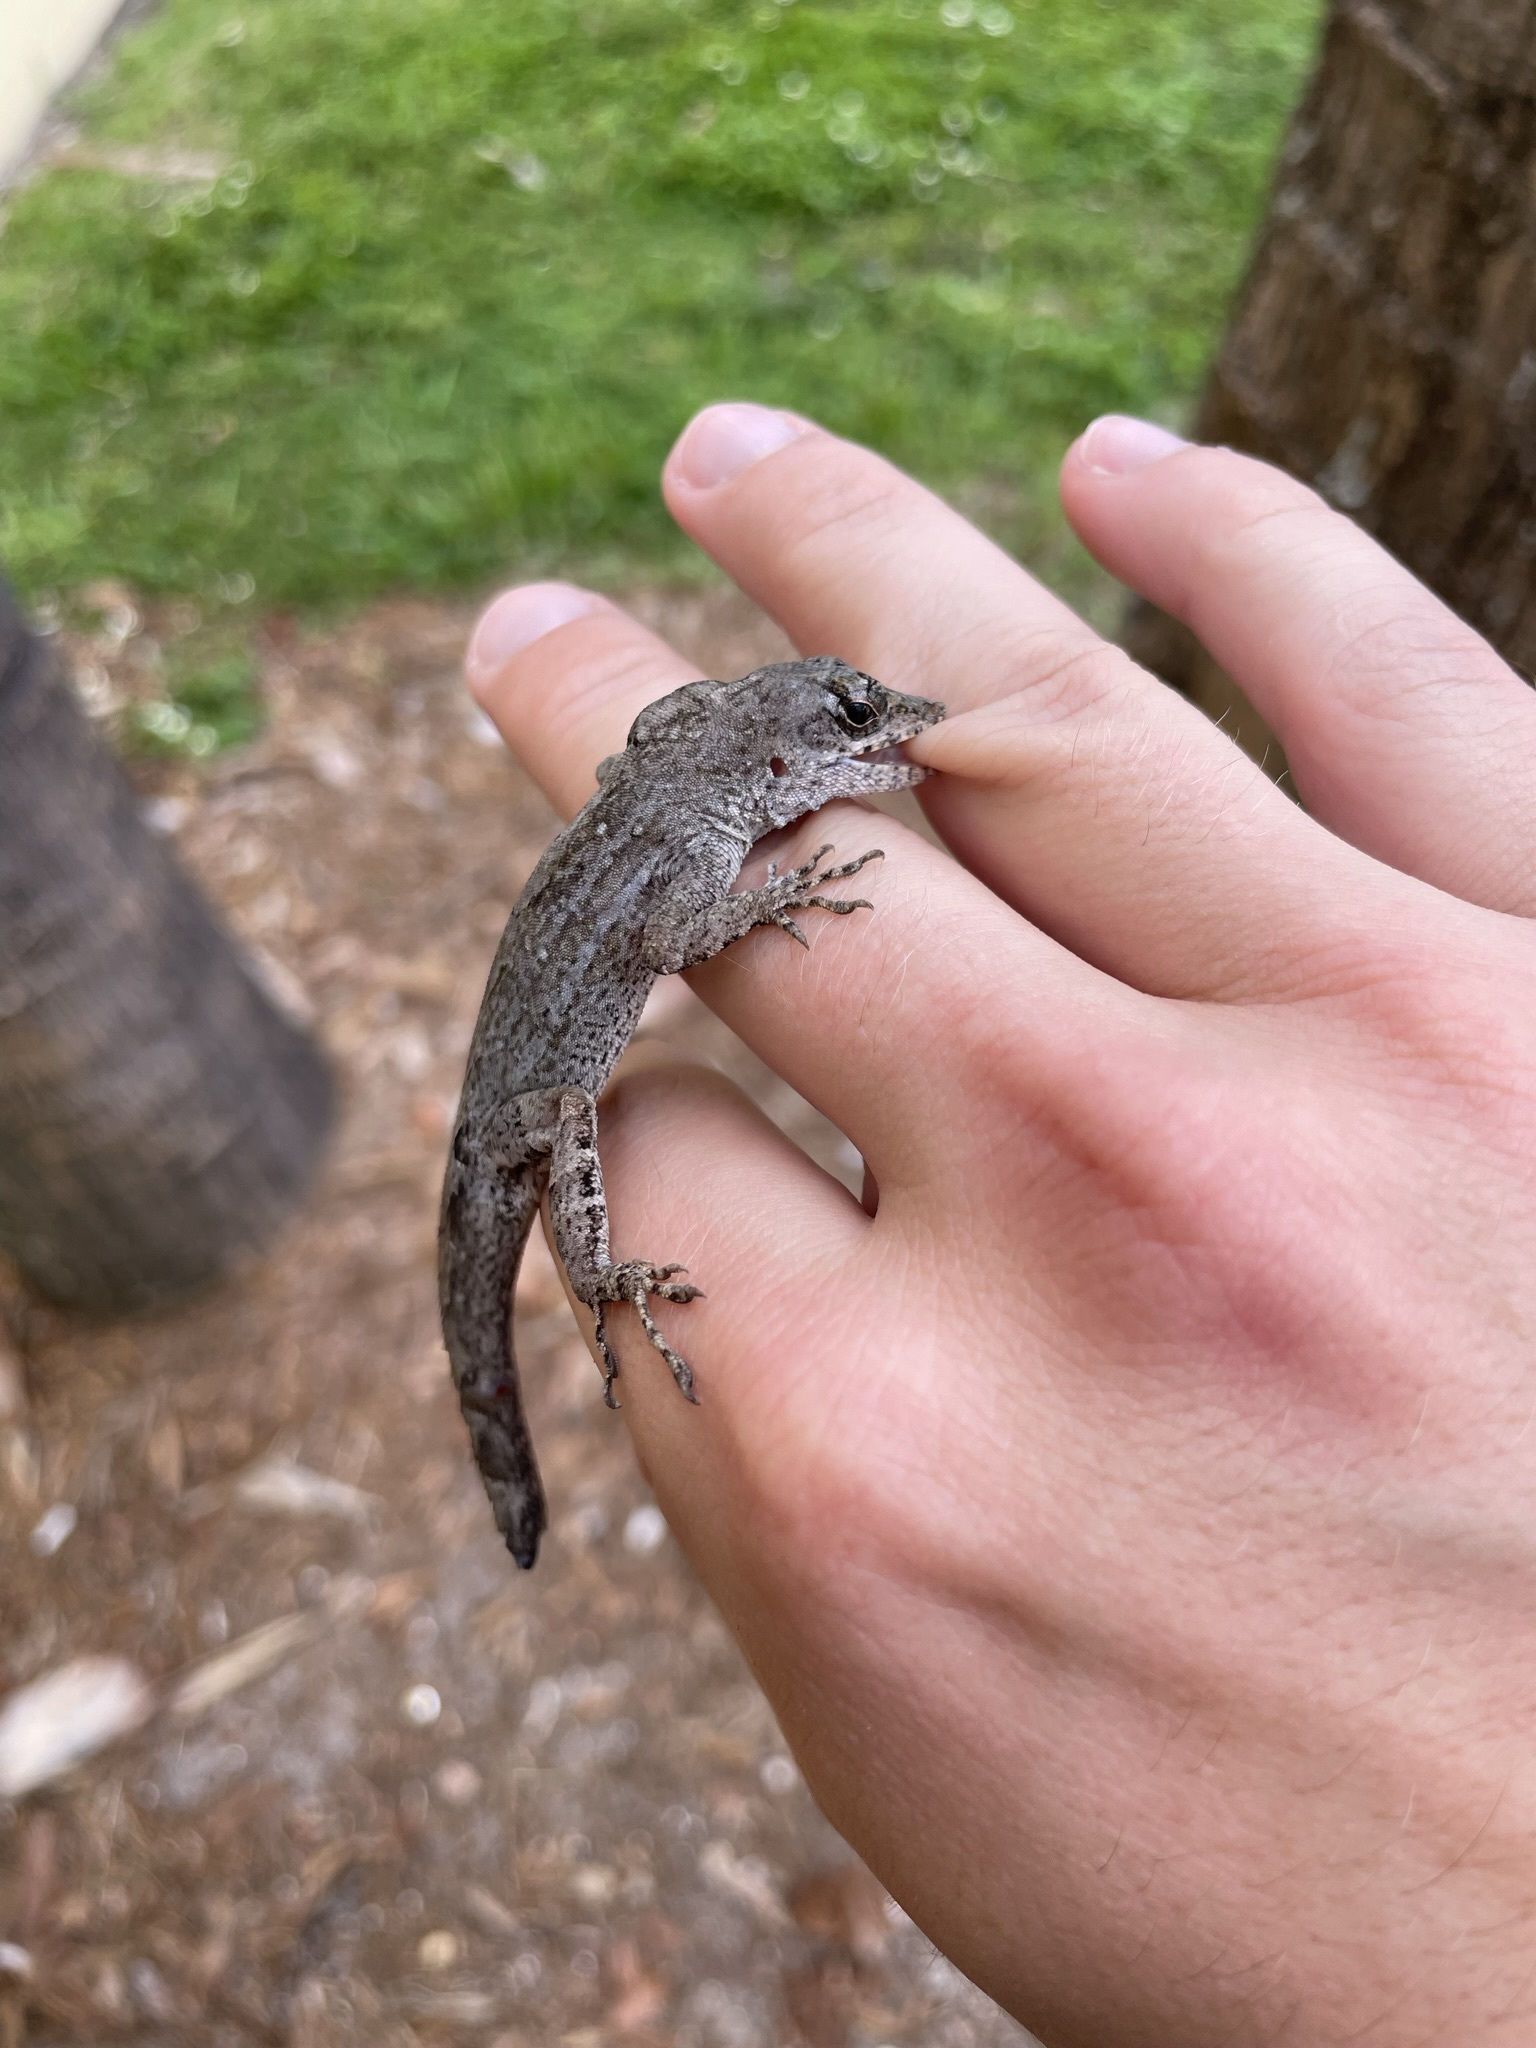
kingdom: Animalia
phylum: Chordata
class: Squamata
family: Dactyloidae
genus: Anolis
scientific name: Anolis sagrei
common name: Brown anole
